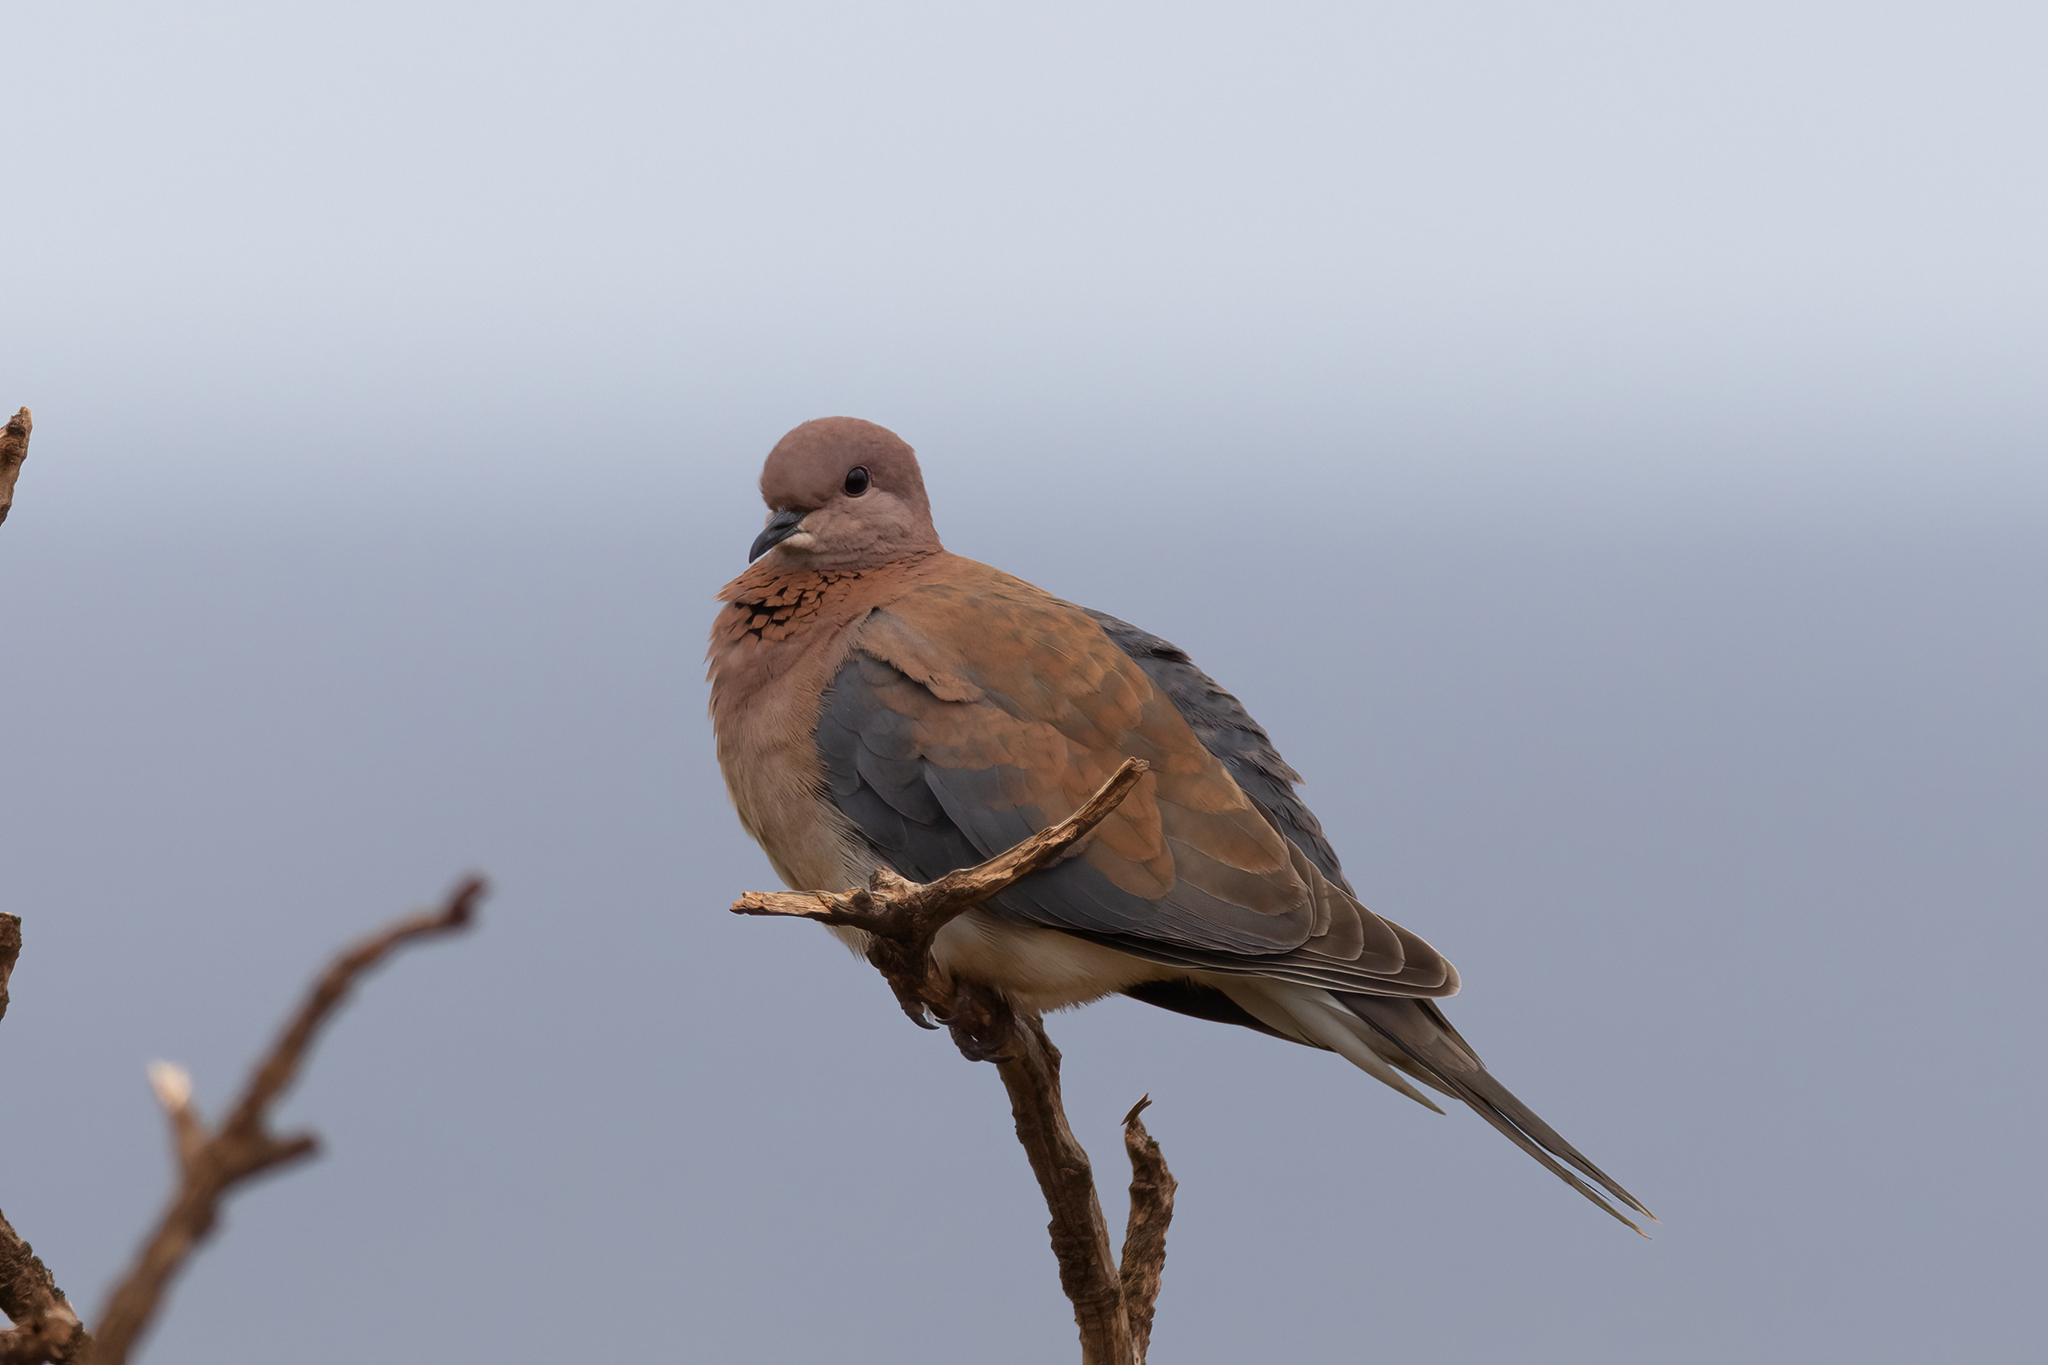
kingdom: Animalia
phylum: Chordata
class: Aves
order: Columbiformes
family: Columbidae
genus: Spilopelia
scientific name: Spilopelia senegalensis
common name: Laughing dove
